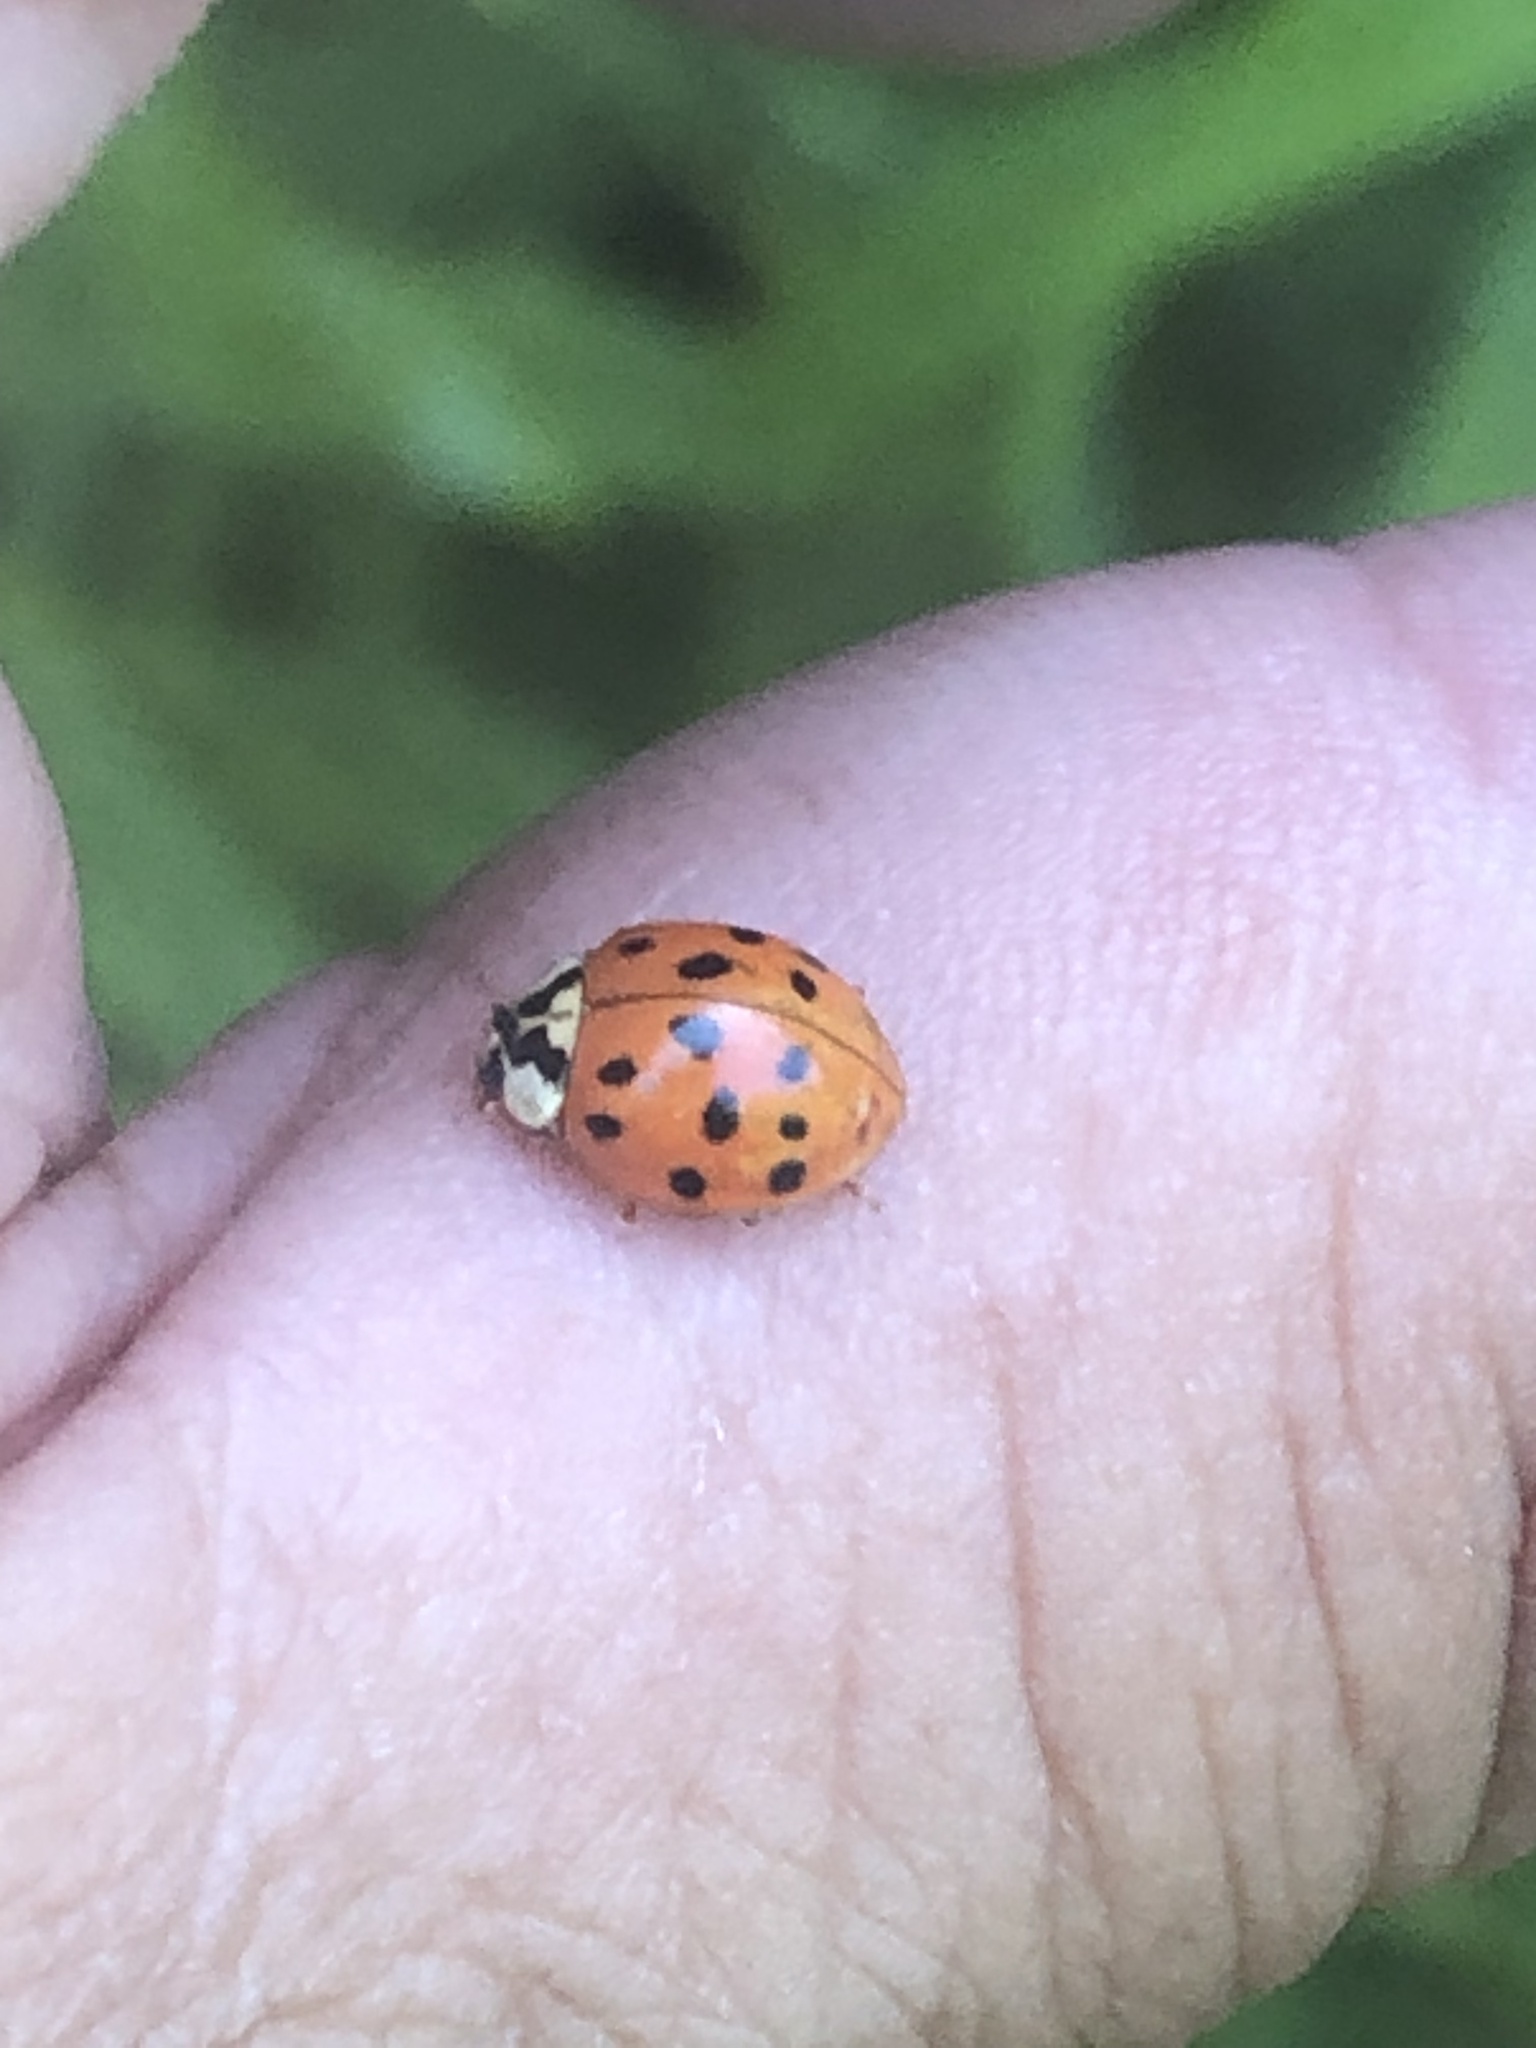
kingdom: Animalia
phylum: Arthropoda
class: Insecta
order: Coleoptera
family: Coccinellidae
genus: Harmonia
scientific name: Harmonia axyridis
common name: Harlequin ladybird
